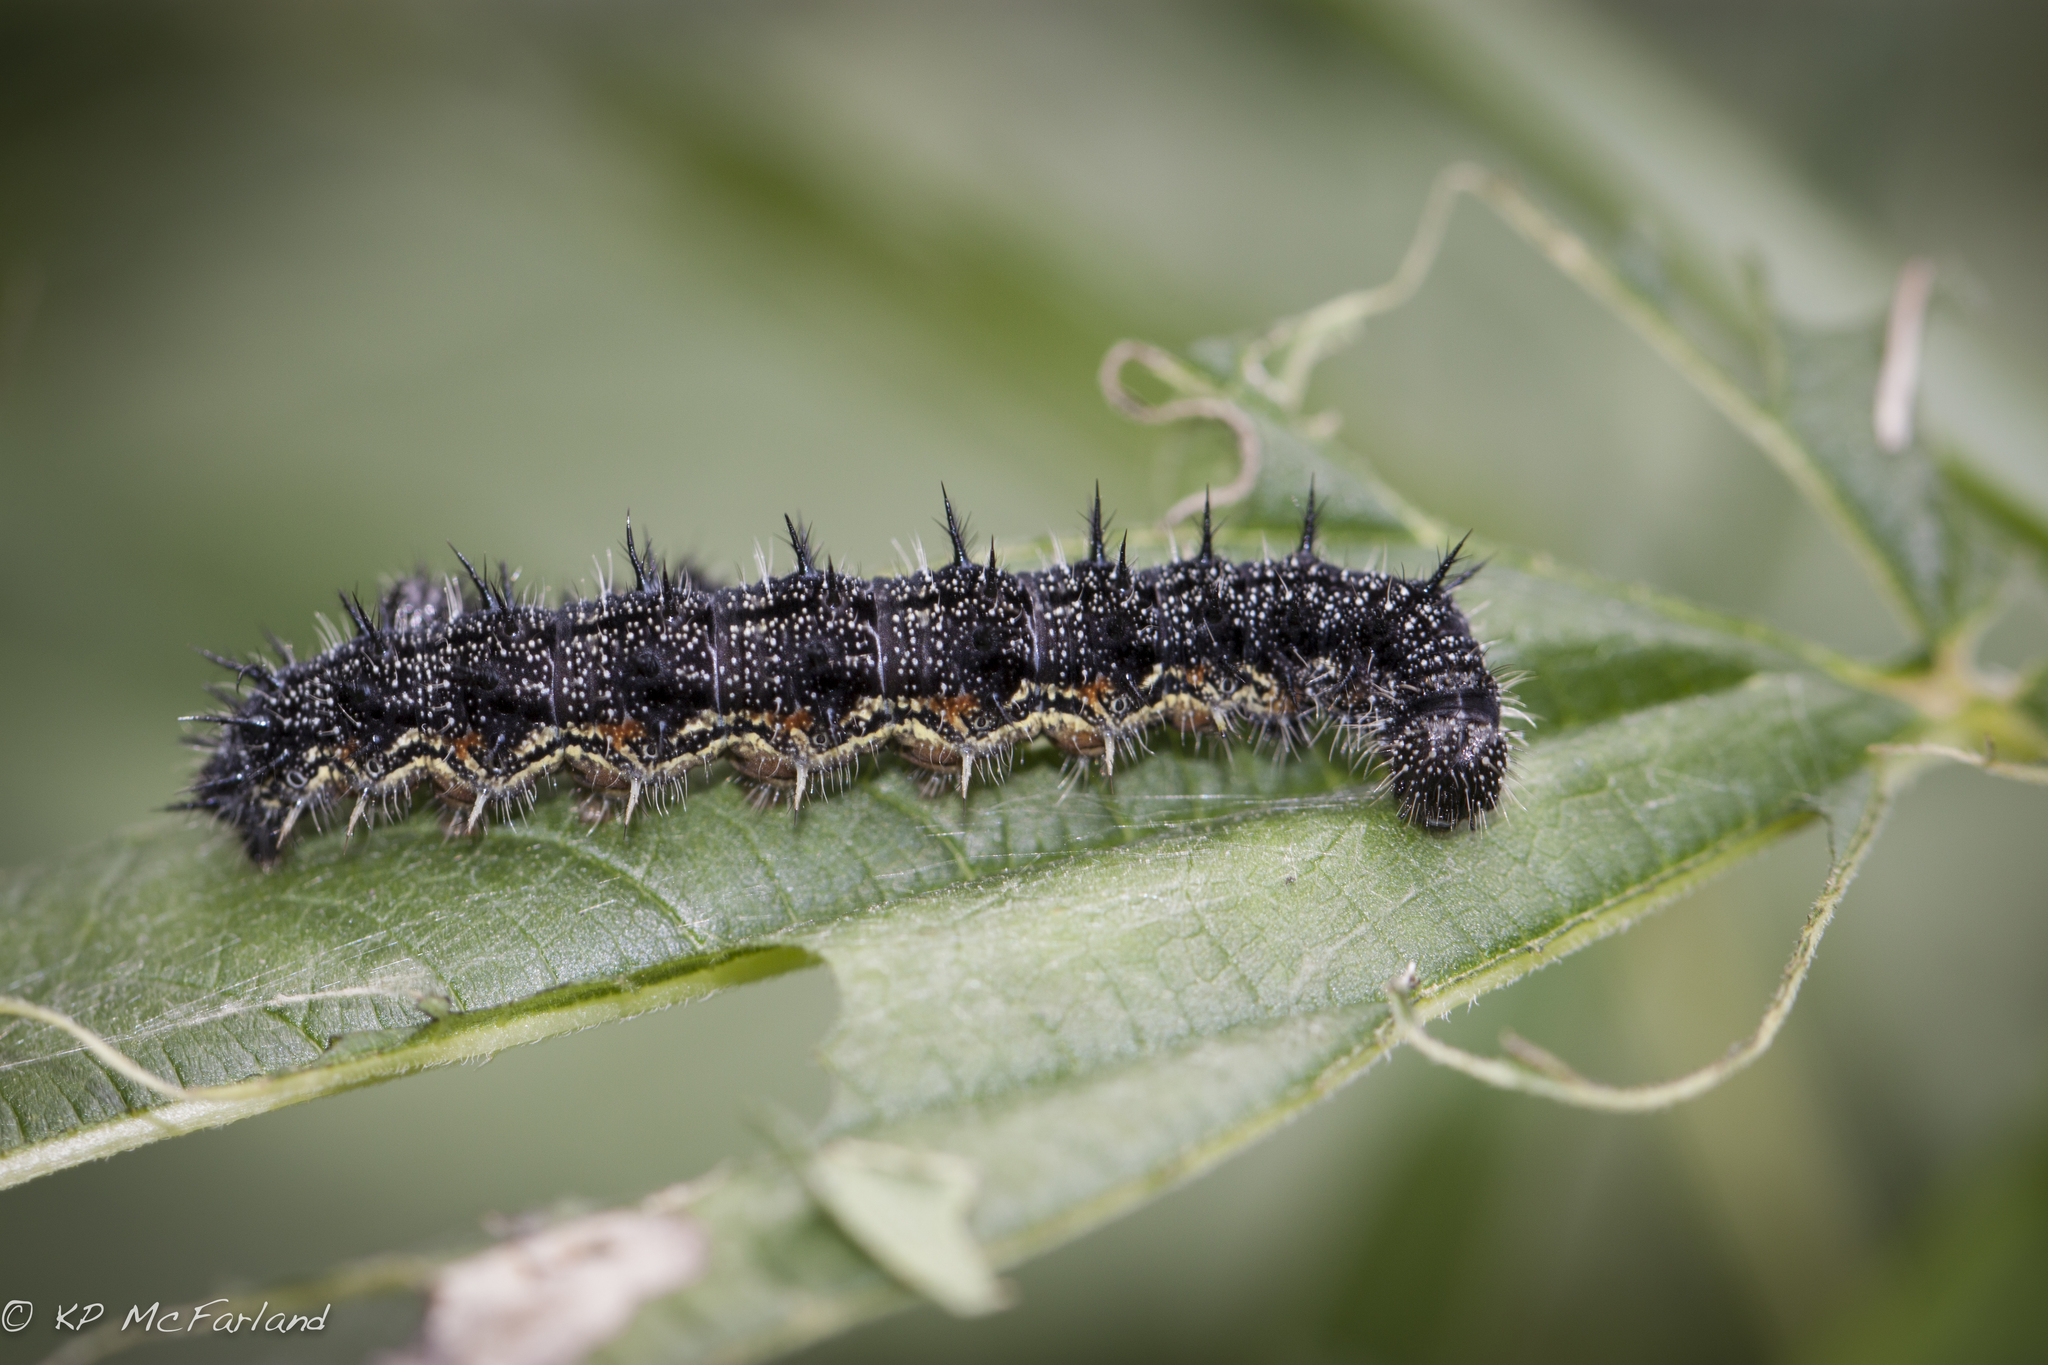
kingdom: Animalia
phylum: Arthropoda
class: Insecta
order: Lepidoptera
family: Nymphalidae
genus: Aglais
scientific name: Aglais milberti
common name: Milbert's tortoiseshell
